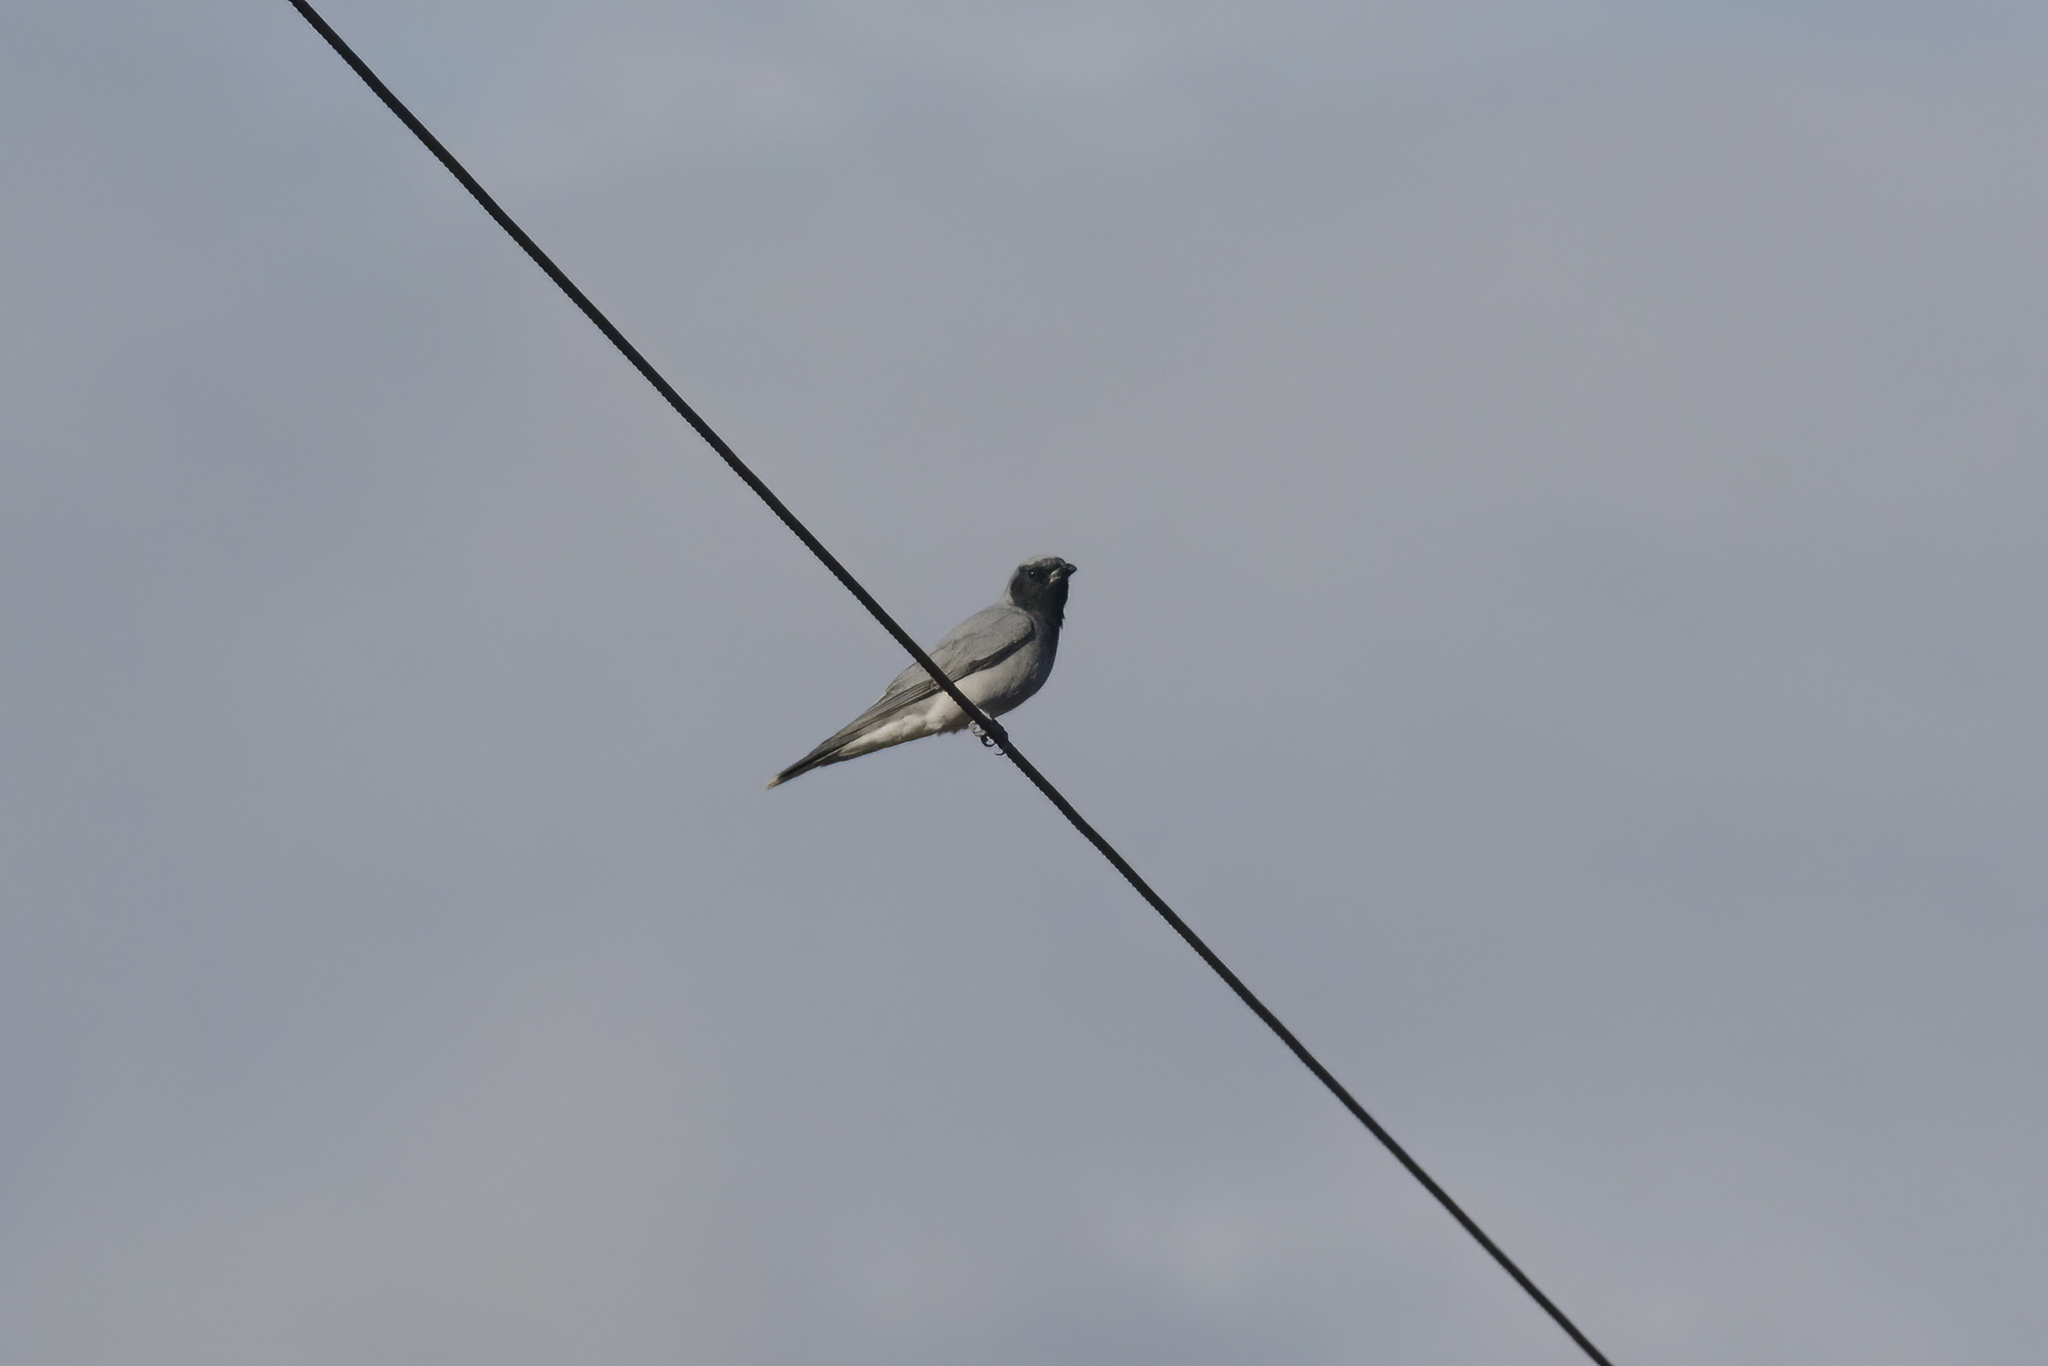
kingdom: Animalia
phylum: Chordata
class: Aves
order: Passeriformes
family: Campephagidae
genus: Coracina
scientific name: Coracina novaehollandiae
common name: Black-faced cuckooshrike
